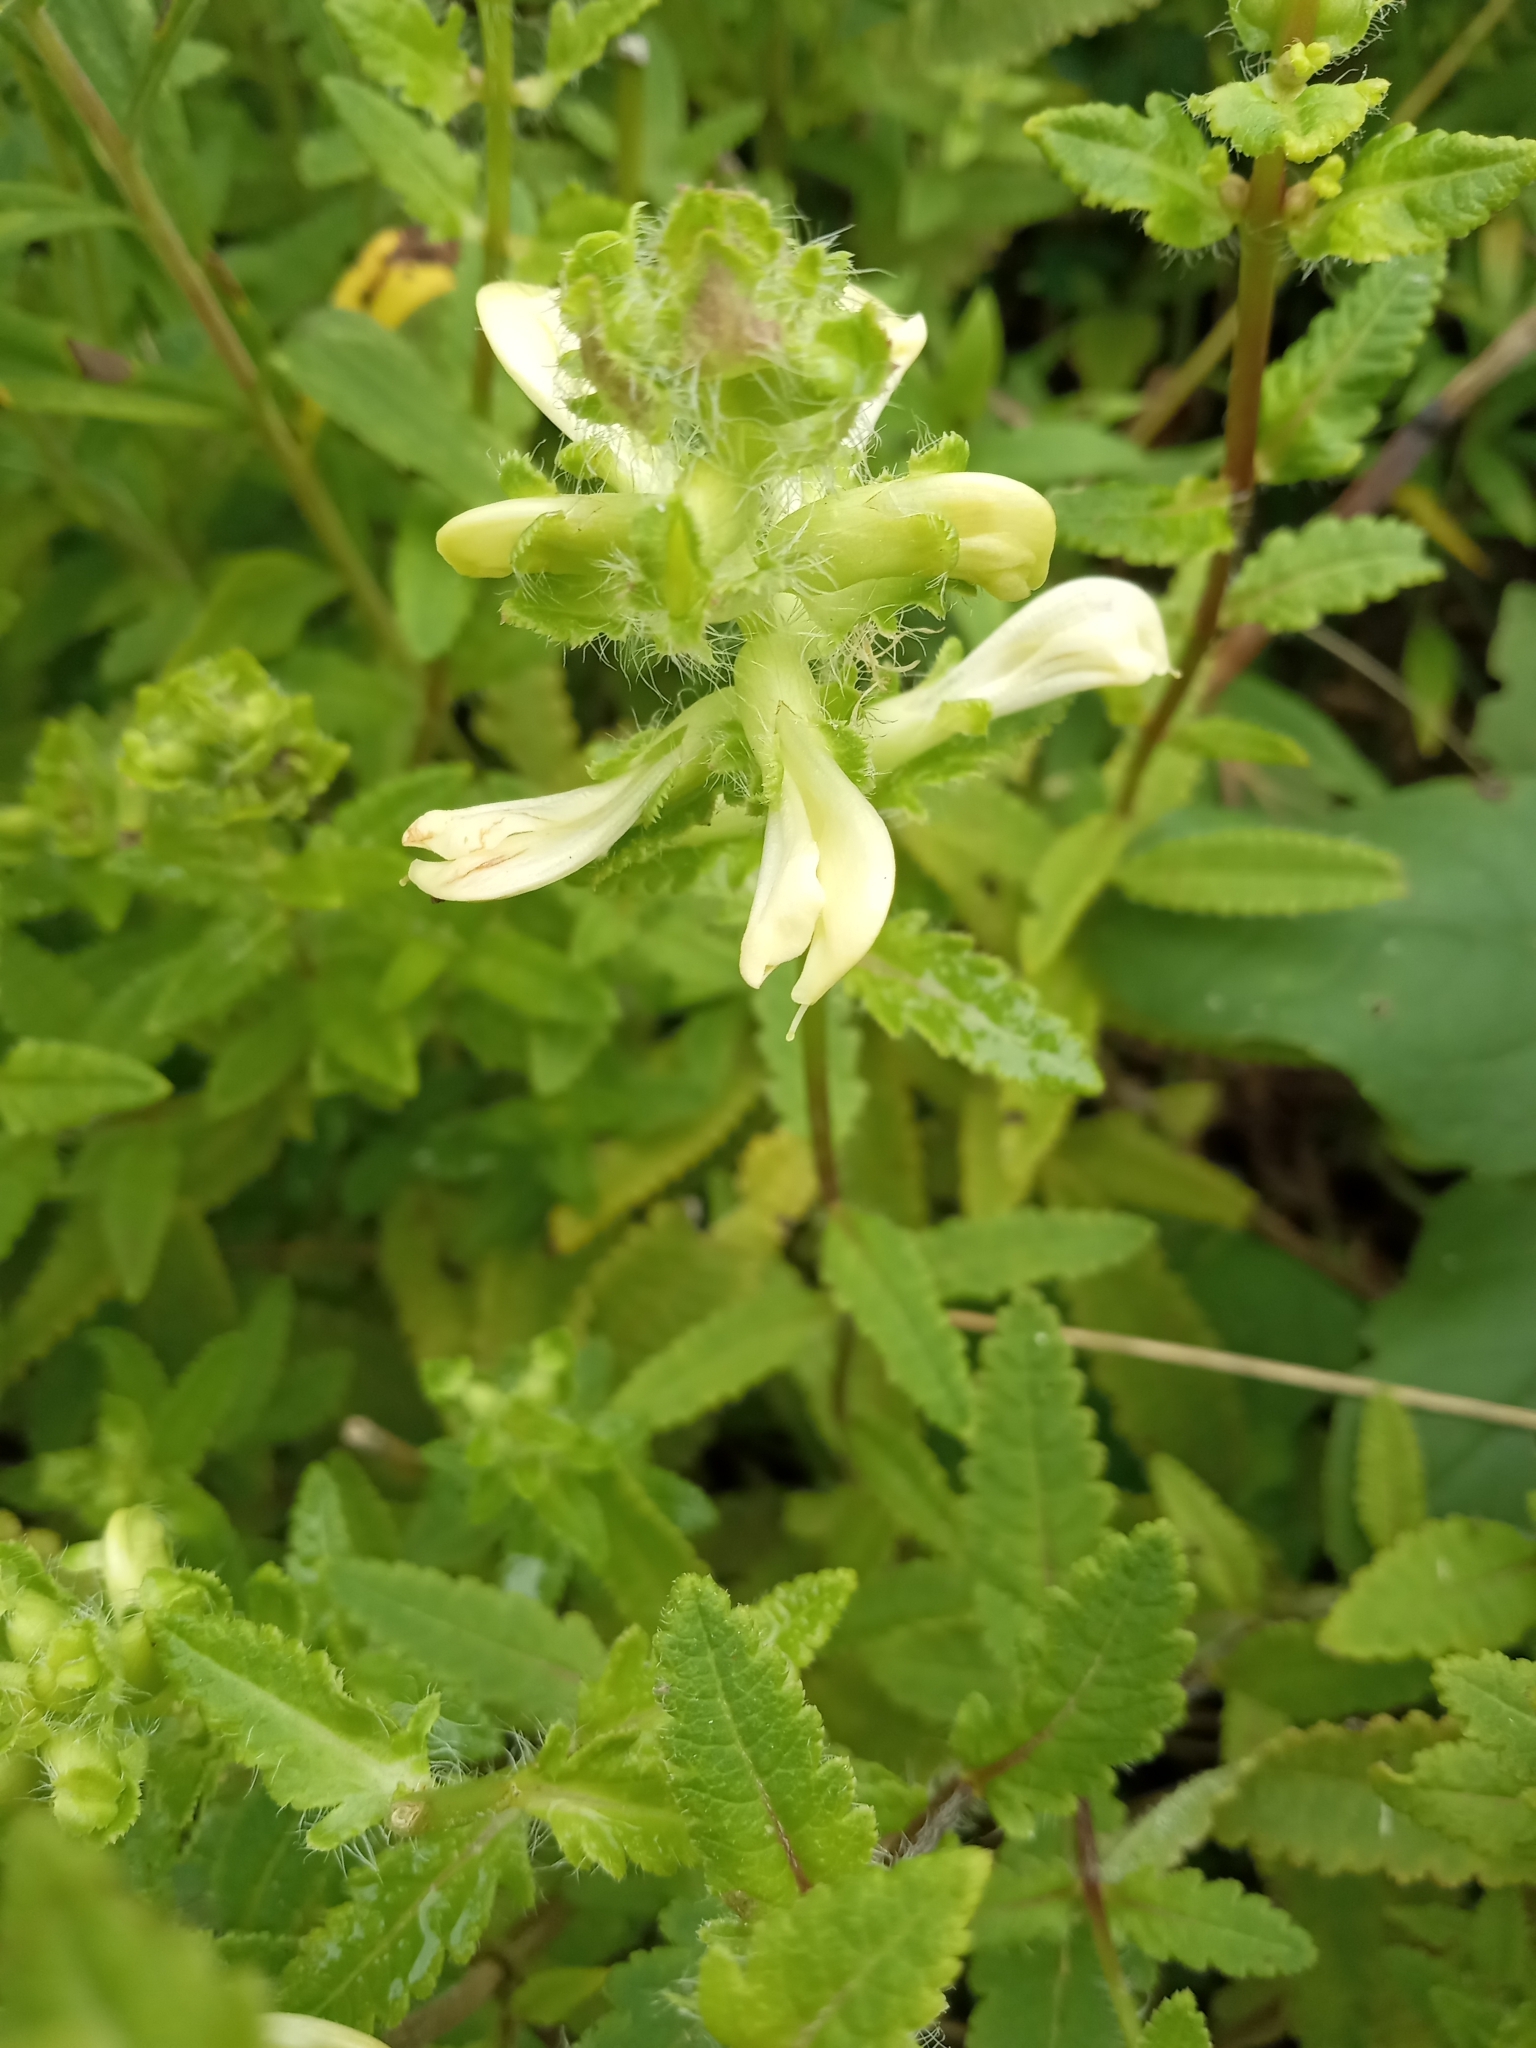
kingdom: Plantae
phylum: Tracheophyta
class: Magnoliopsida
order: Lamiales
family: Orobanchaceae
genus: Pedicularis
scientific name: Pedicularis lanceolata
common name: Swamp lousewort
